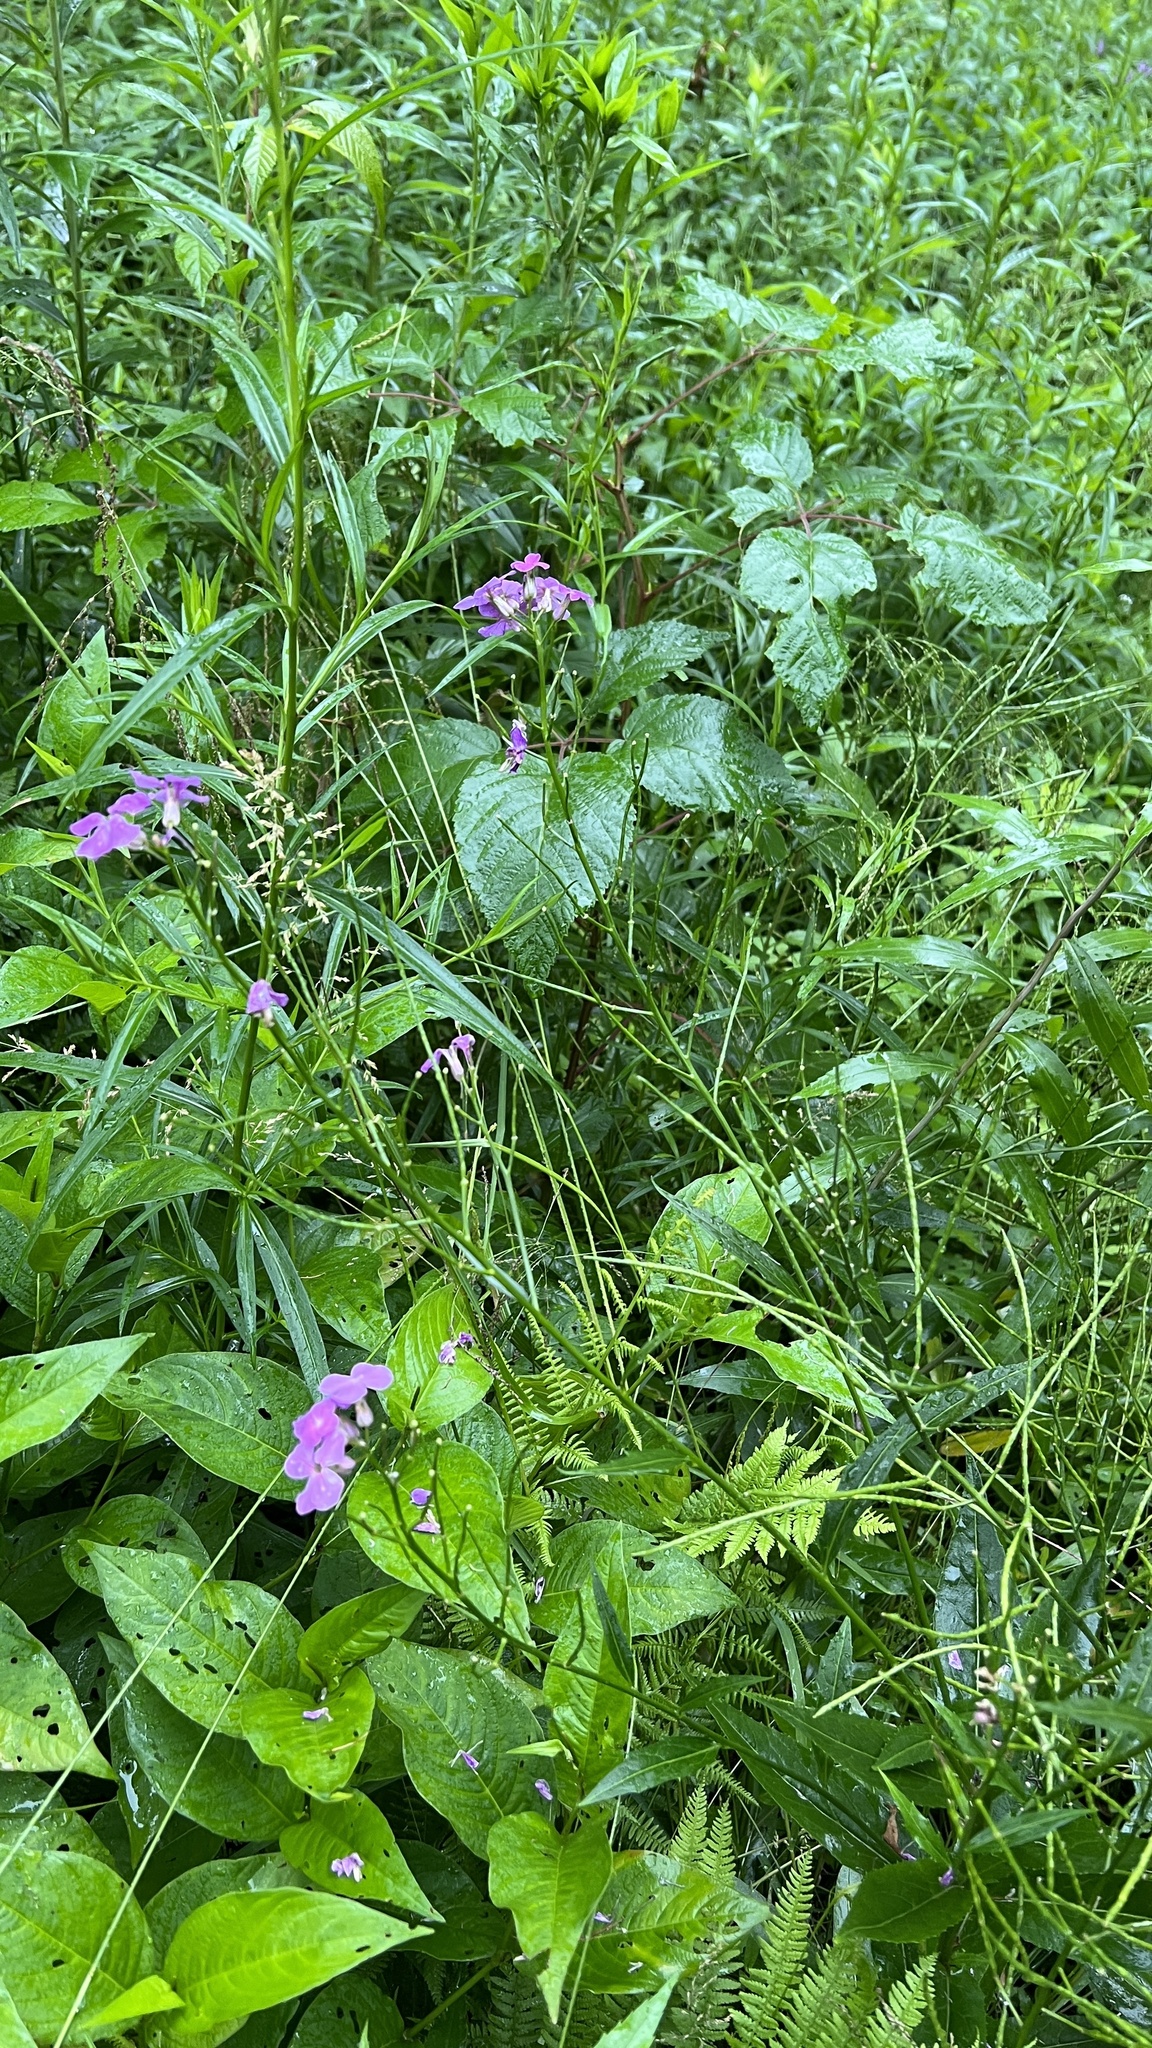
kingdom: Plantae
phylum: Tracheophyta
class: Magnoliopsida
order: Brassicales
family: Brassicaceae
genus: Hesperis
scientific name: Hesperis matronalis
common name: Dame's-violet
